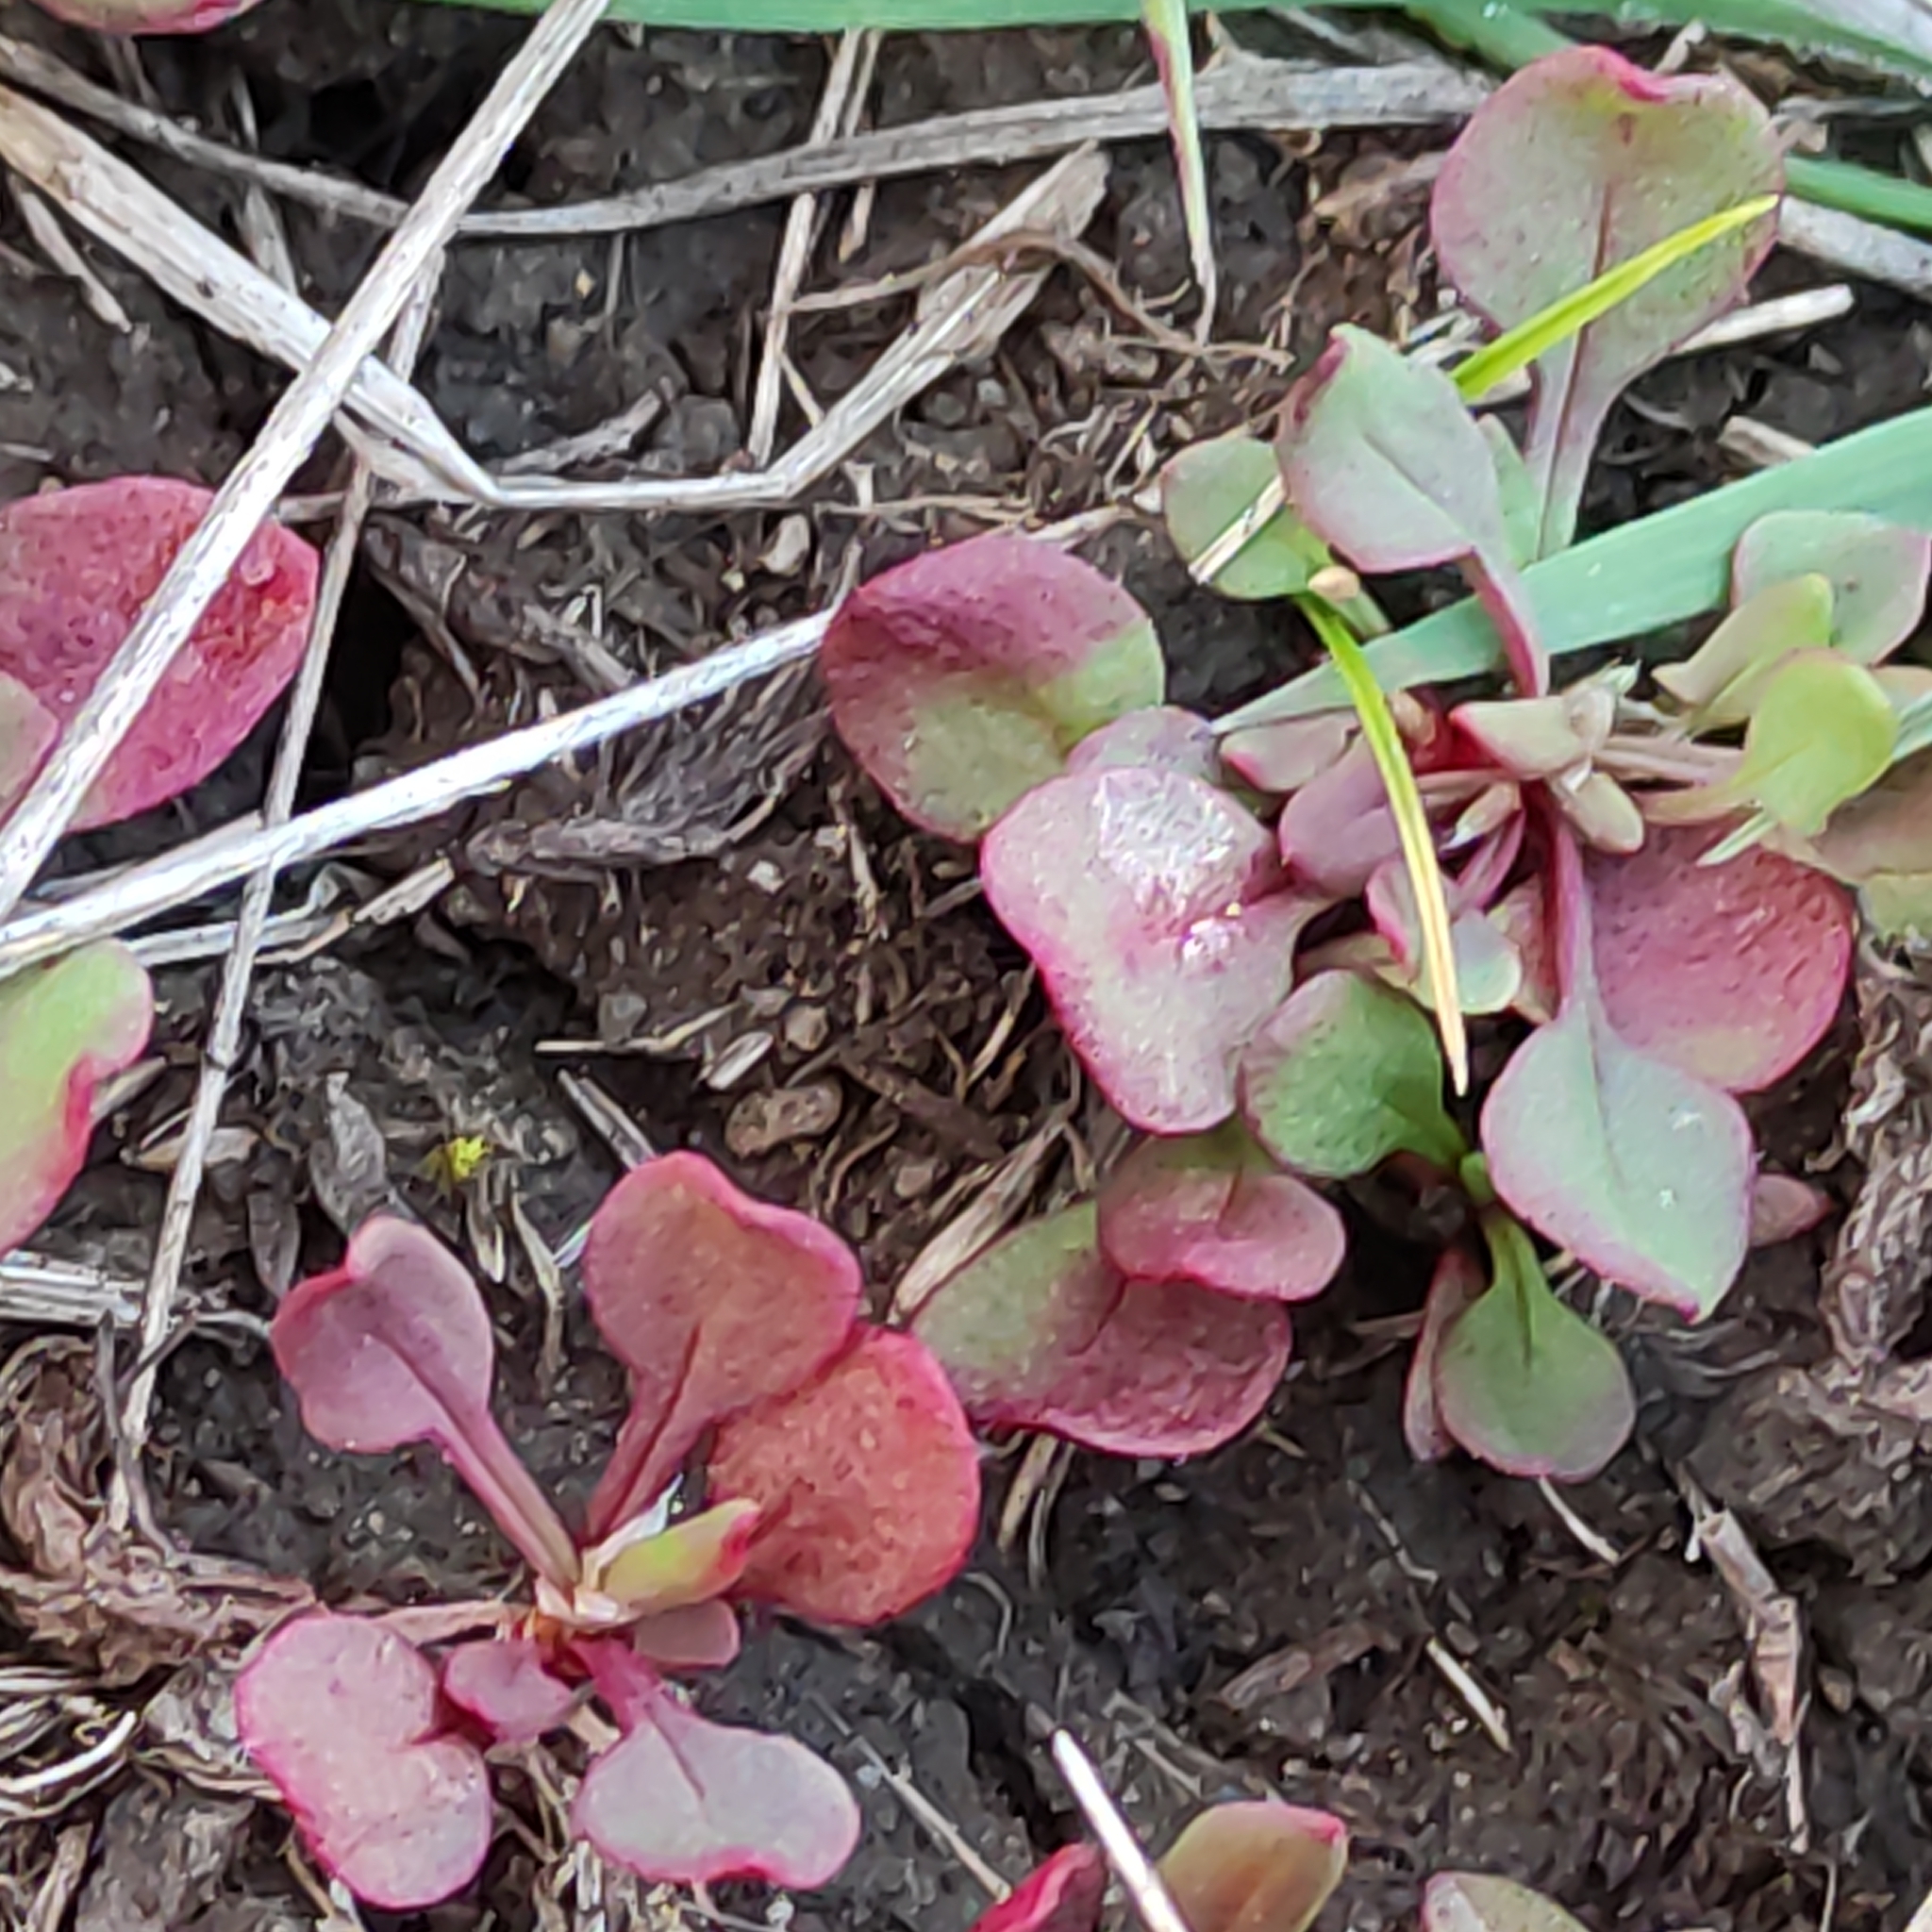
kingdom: Plantae
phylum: Tracheophyta
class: Magnoliopsida
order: Caryophyllales
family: Polygonaceae
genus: Rumex
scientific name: Rumex acetosella
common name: Common sheep sorrel
